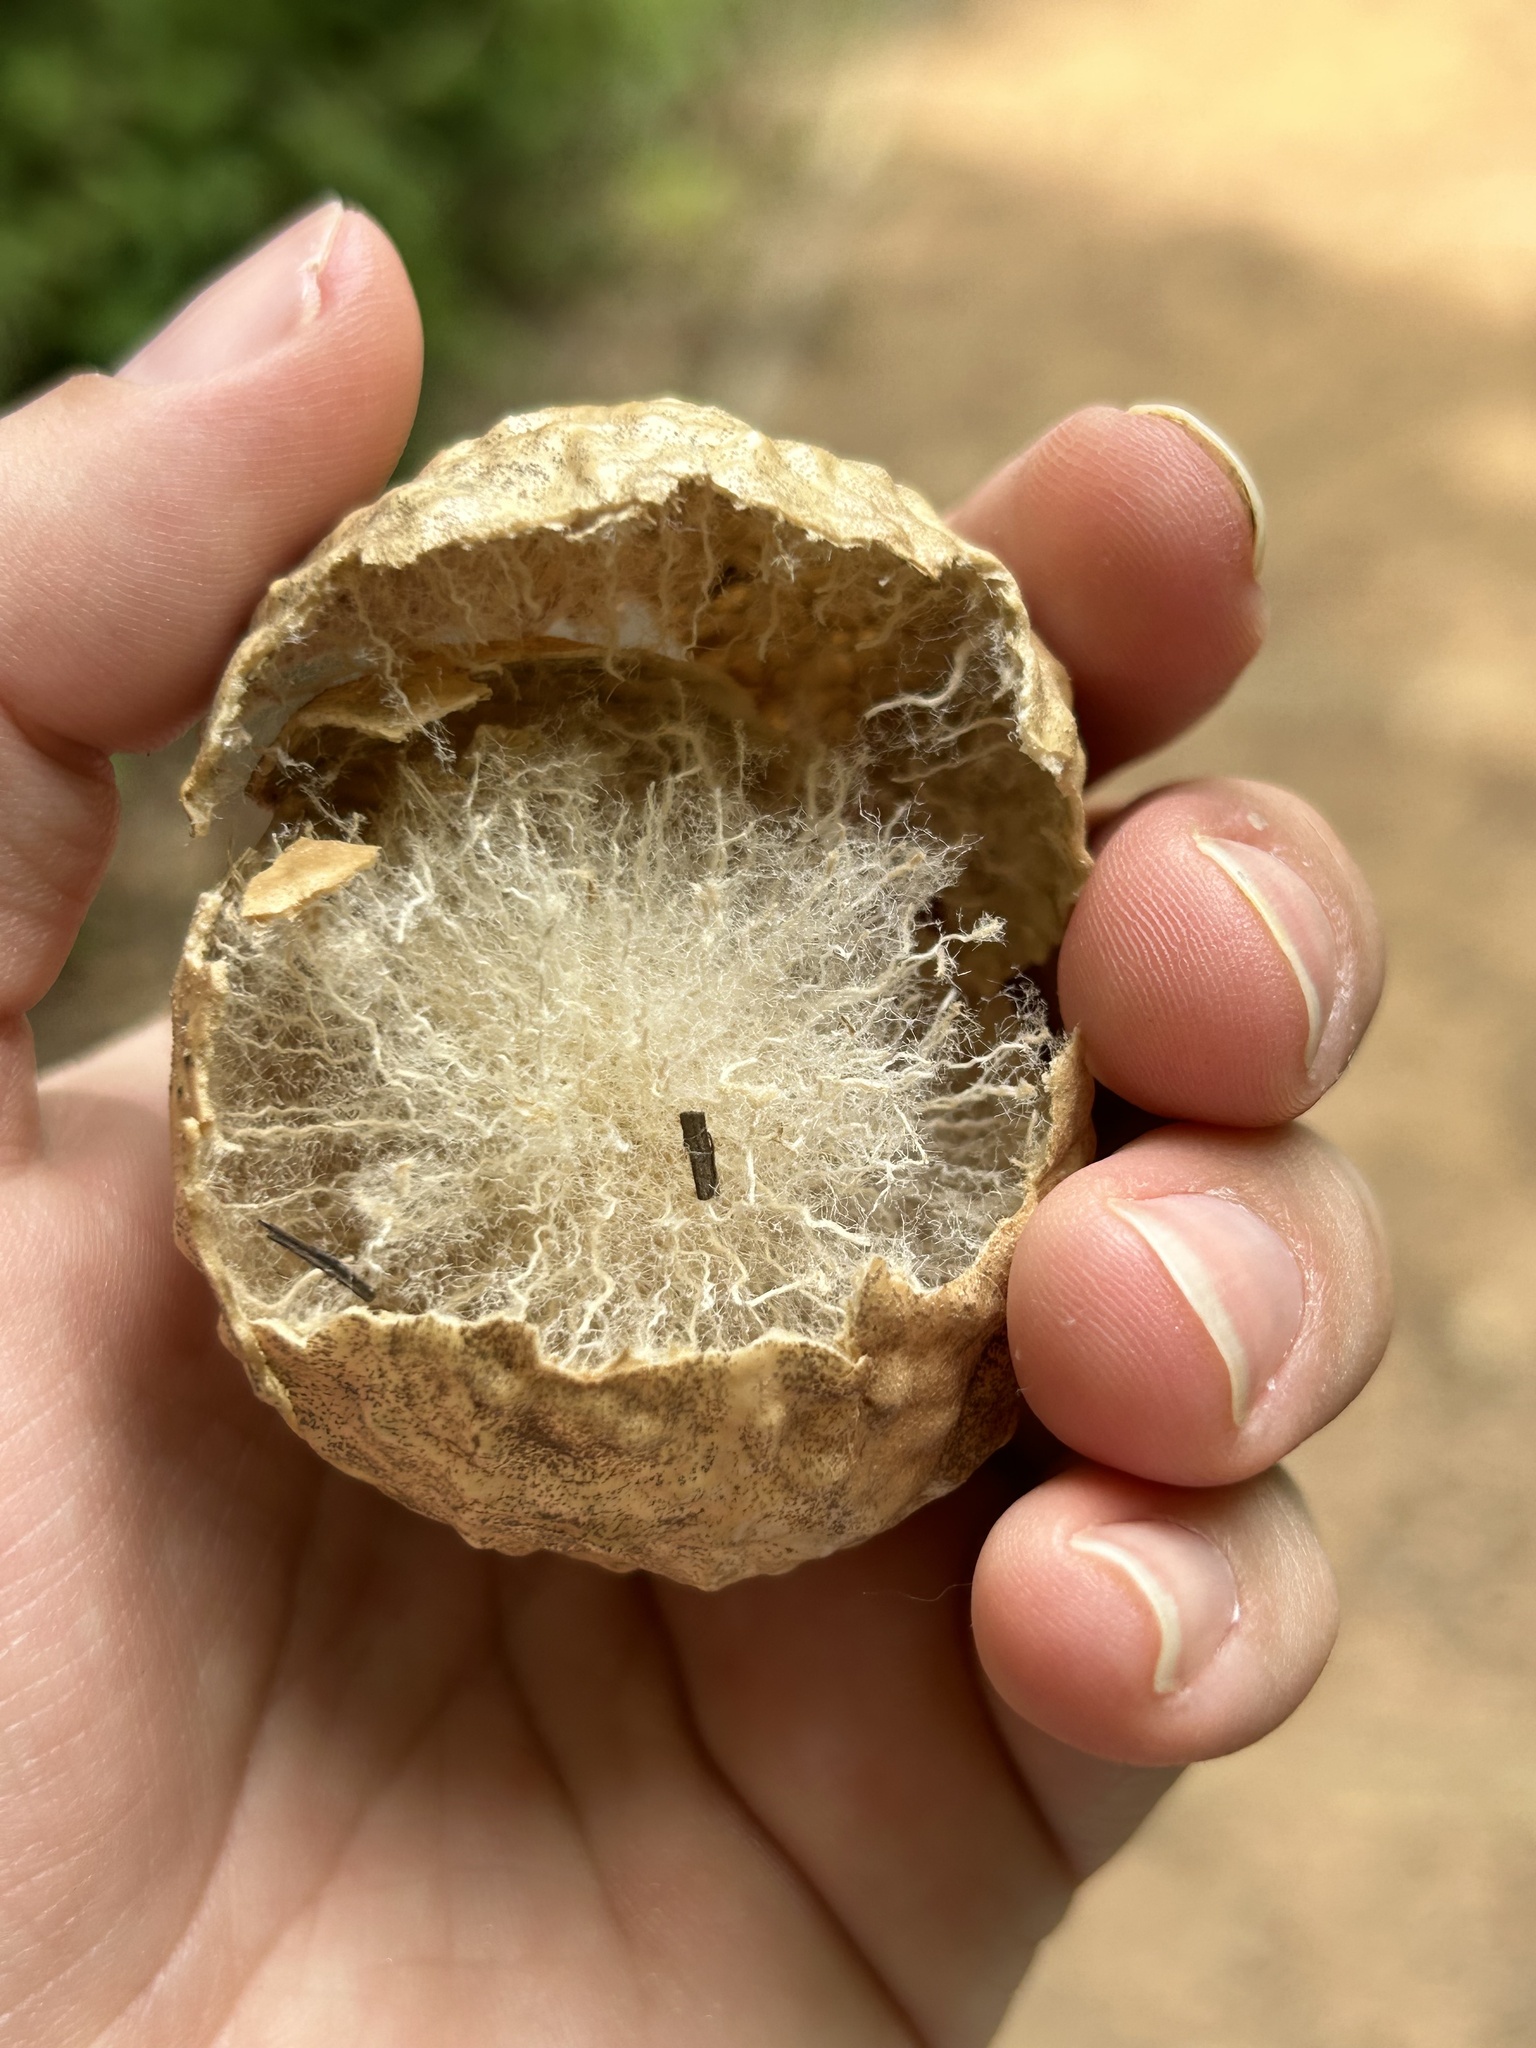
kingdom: Animalia
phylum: Arthropoda
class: Insecta
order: Hymenoptera
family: Cynipidae
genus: Amphibolips
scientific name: Amphibolips
